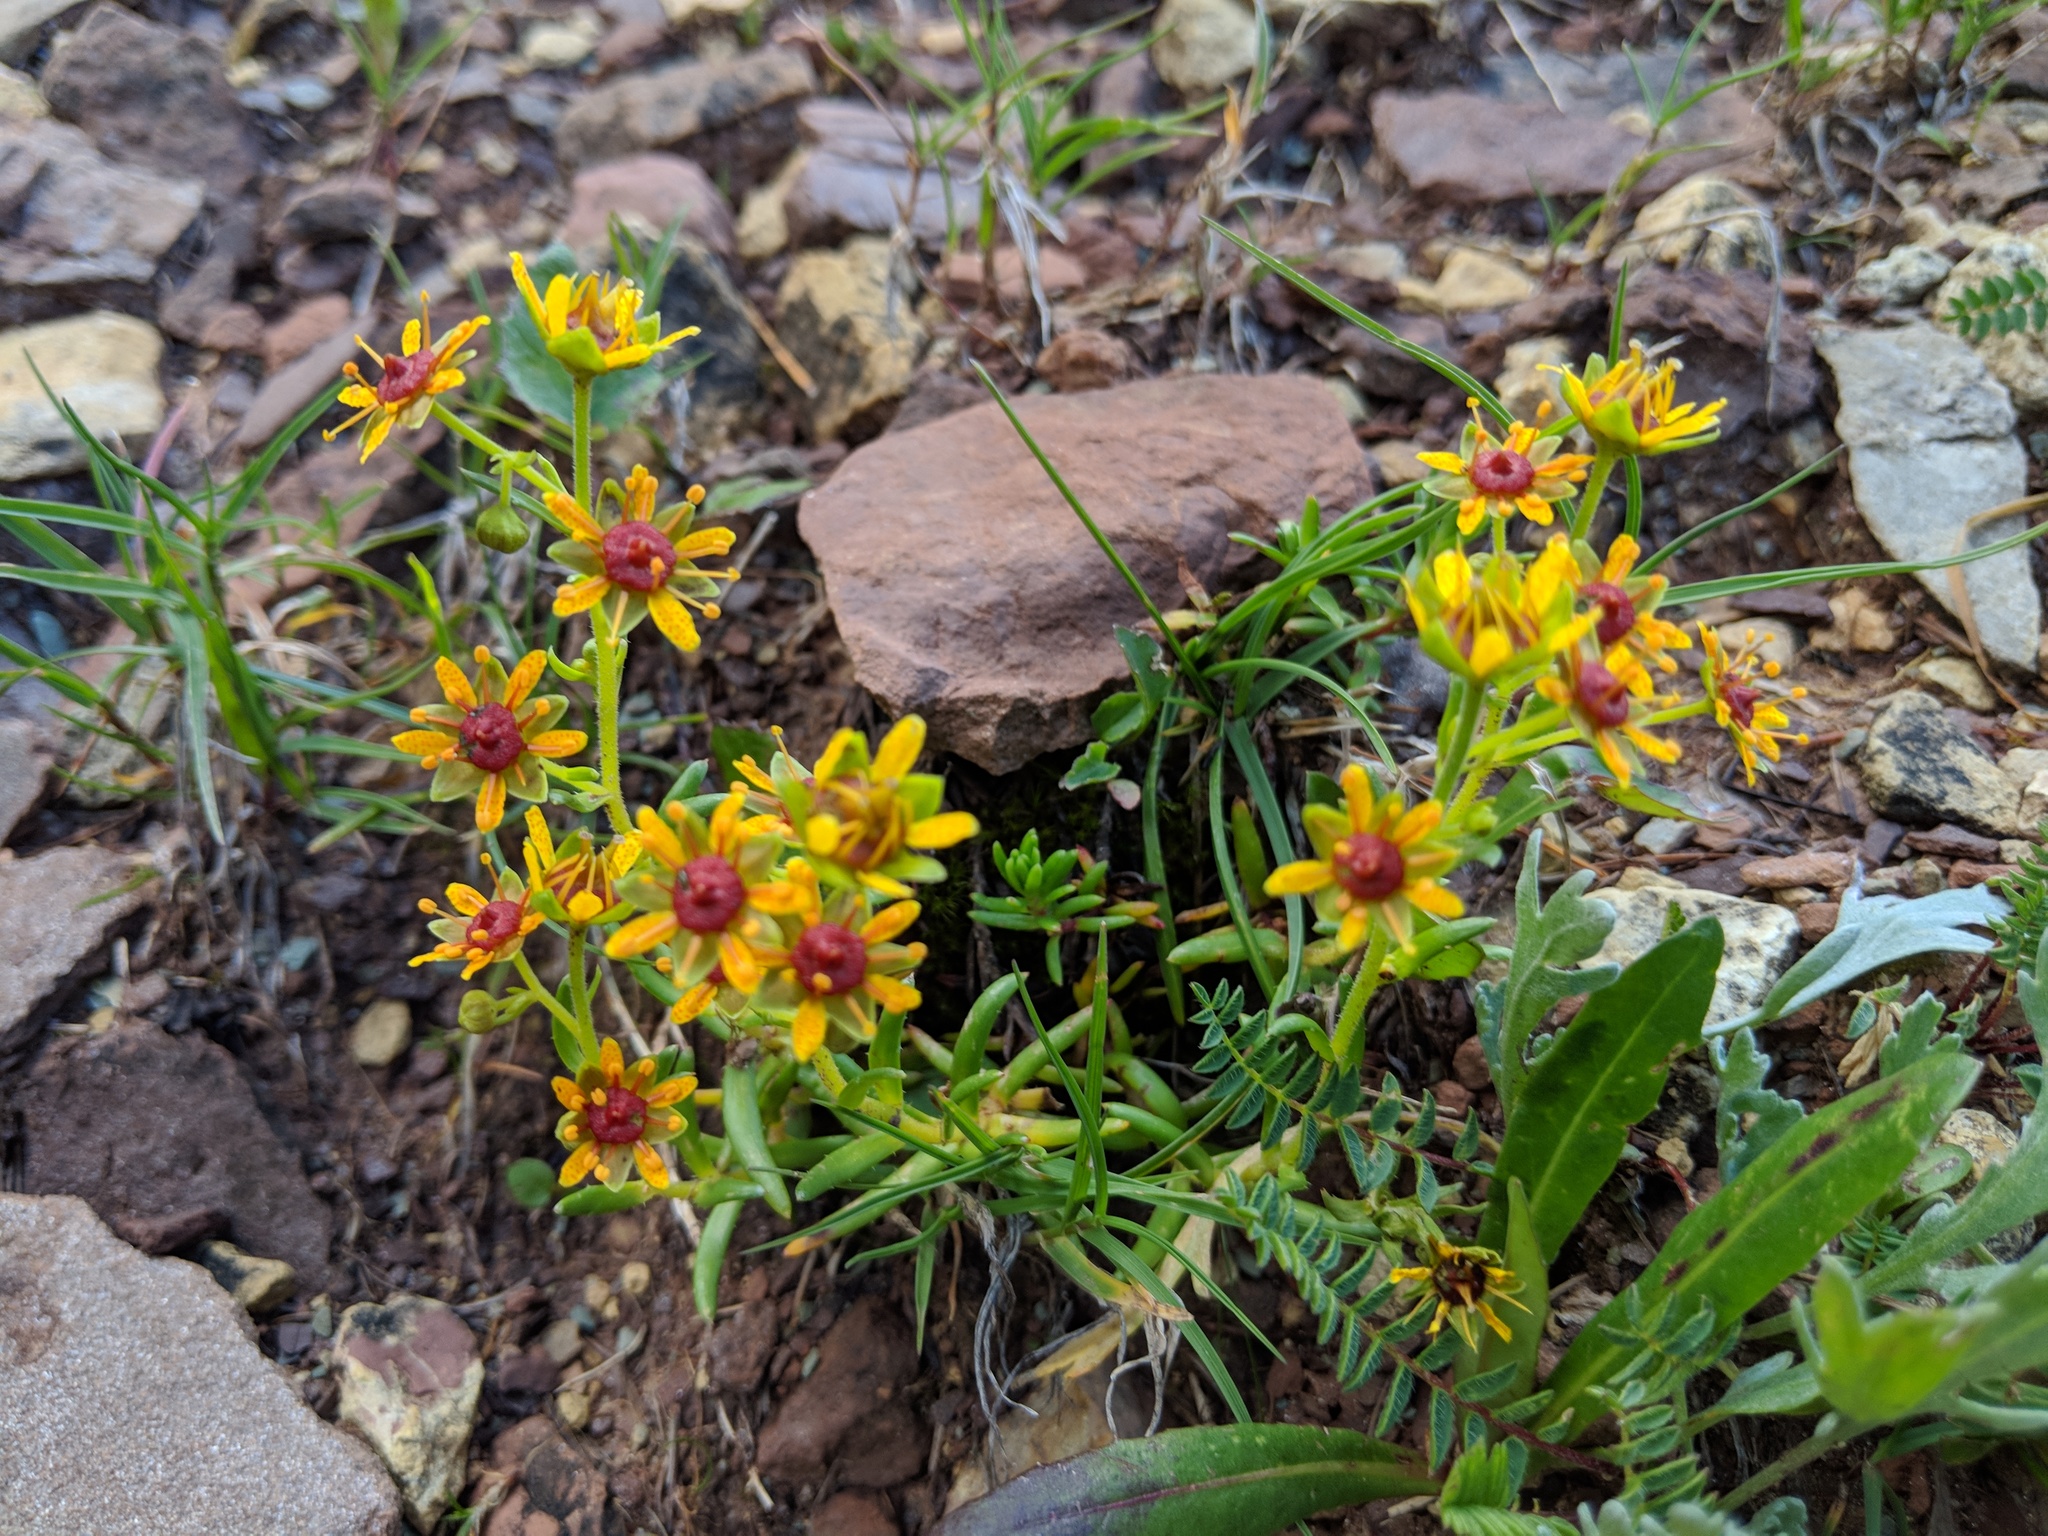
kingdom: Plantae
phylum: Tracheophyta
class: Magnoliopsida
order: Saxifragales
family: Saxifragaceae
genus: Saxifraga
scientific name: Saxifraga aizoides
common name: Yellow mountain saxifrage
